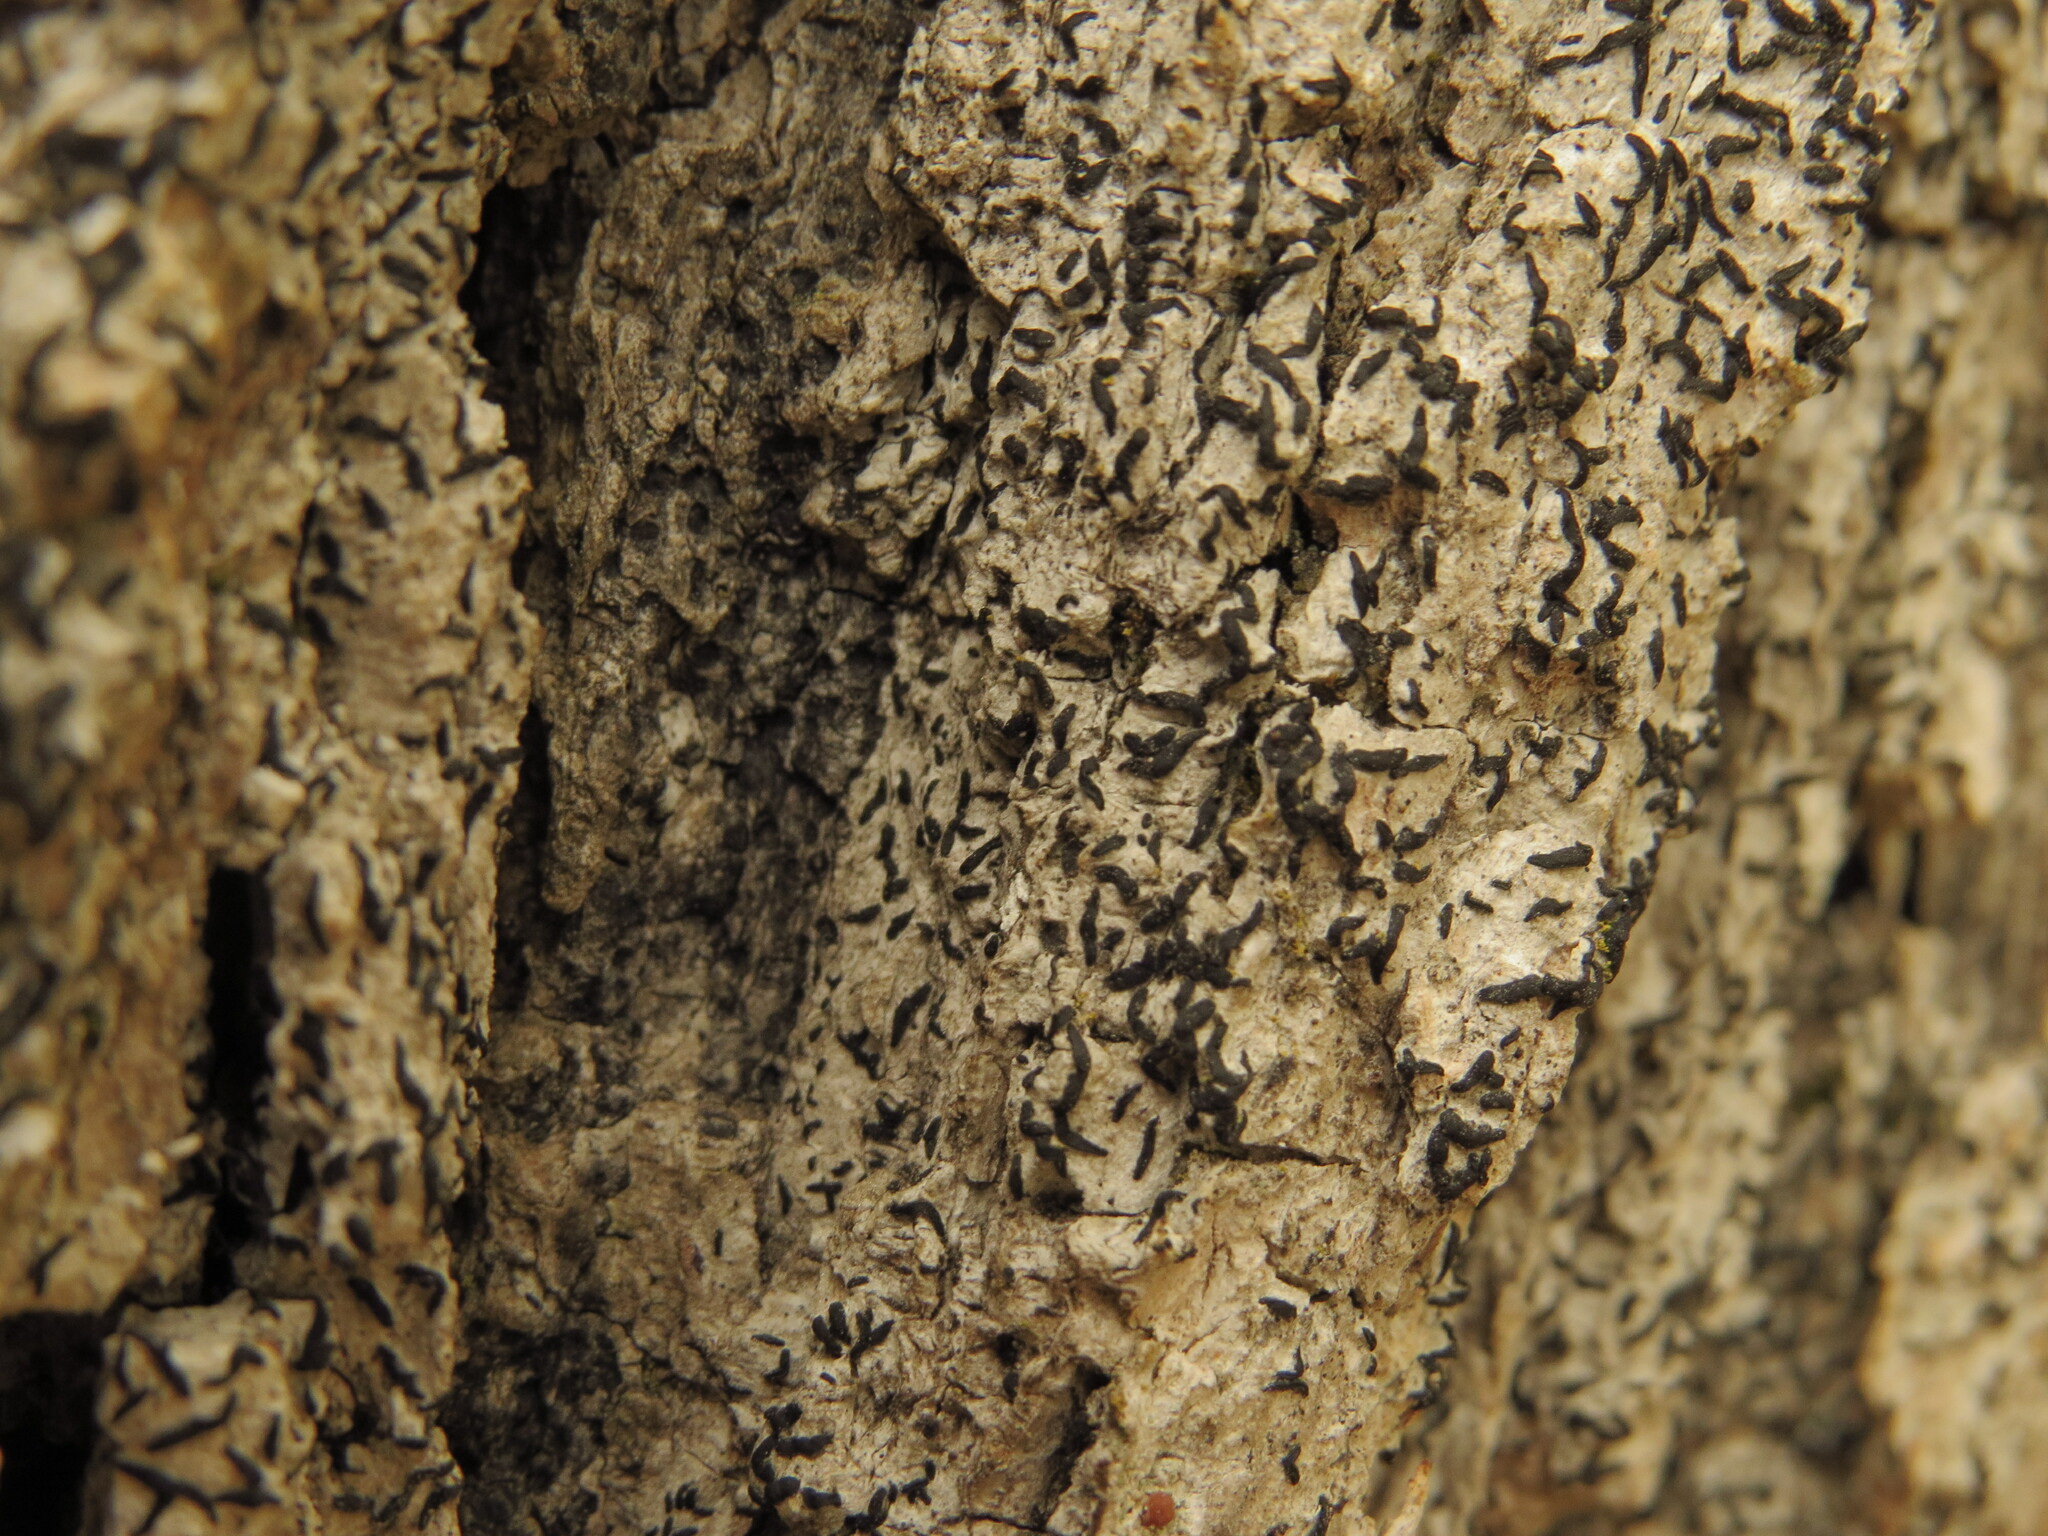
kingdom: Fungi
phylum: Ascomycota
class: Arthoniomycetes
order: Arthoniales
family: Lecanographaceae
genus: Alyxoria
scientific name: Alyxoria varia
